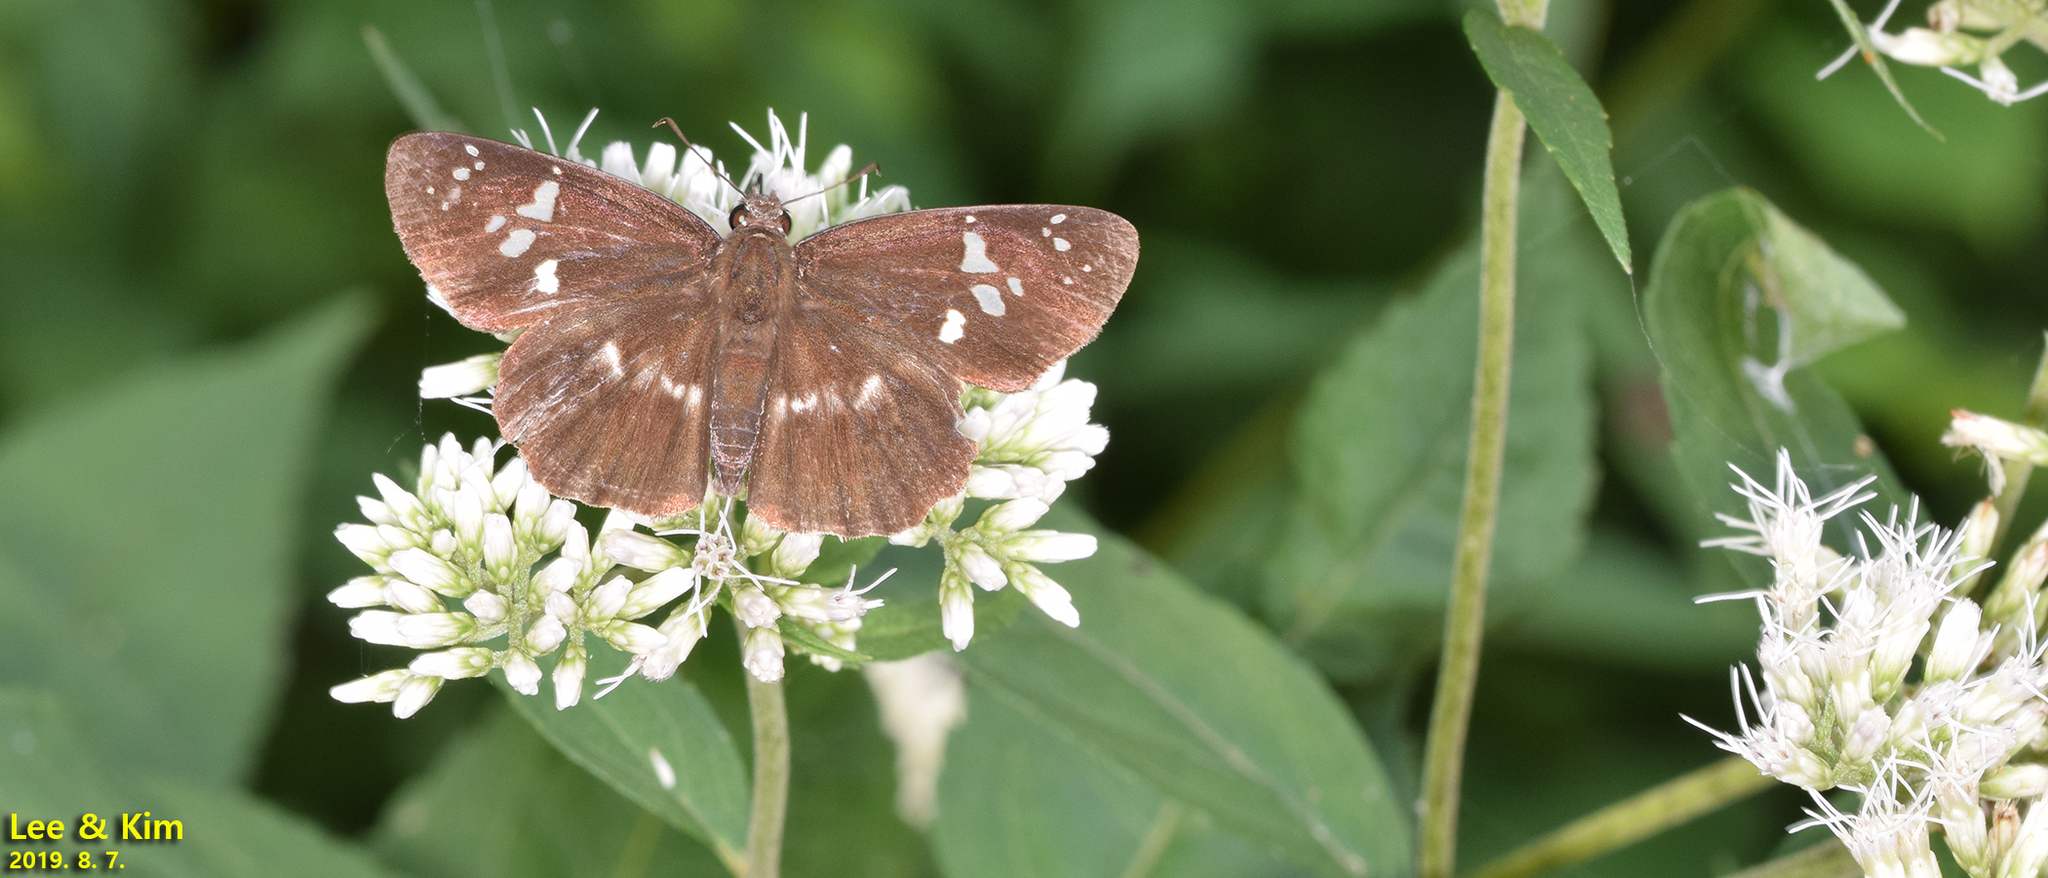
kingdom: Animalia
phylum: Arthropoda
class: Insecta
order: Lepidoptera
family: Hesperiidae
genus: Daimio
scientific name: Daimio tethys
